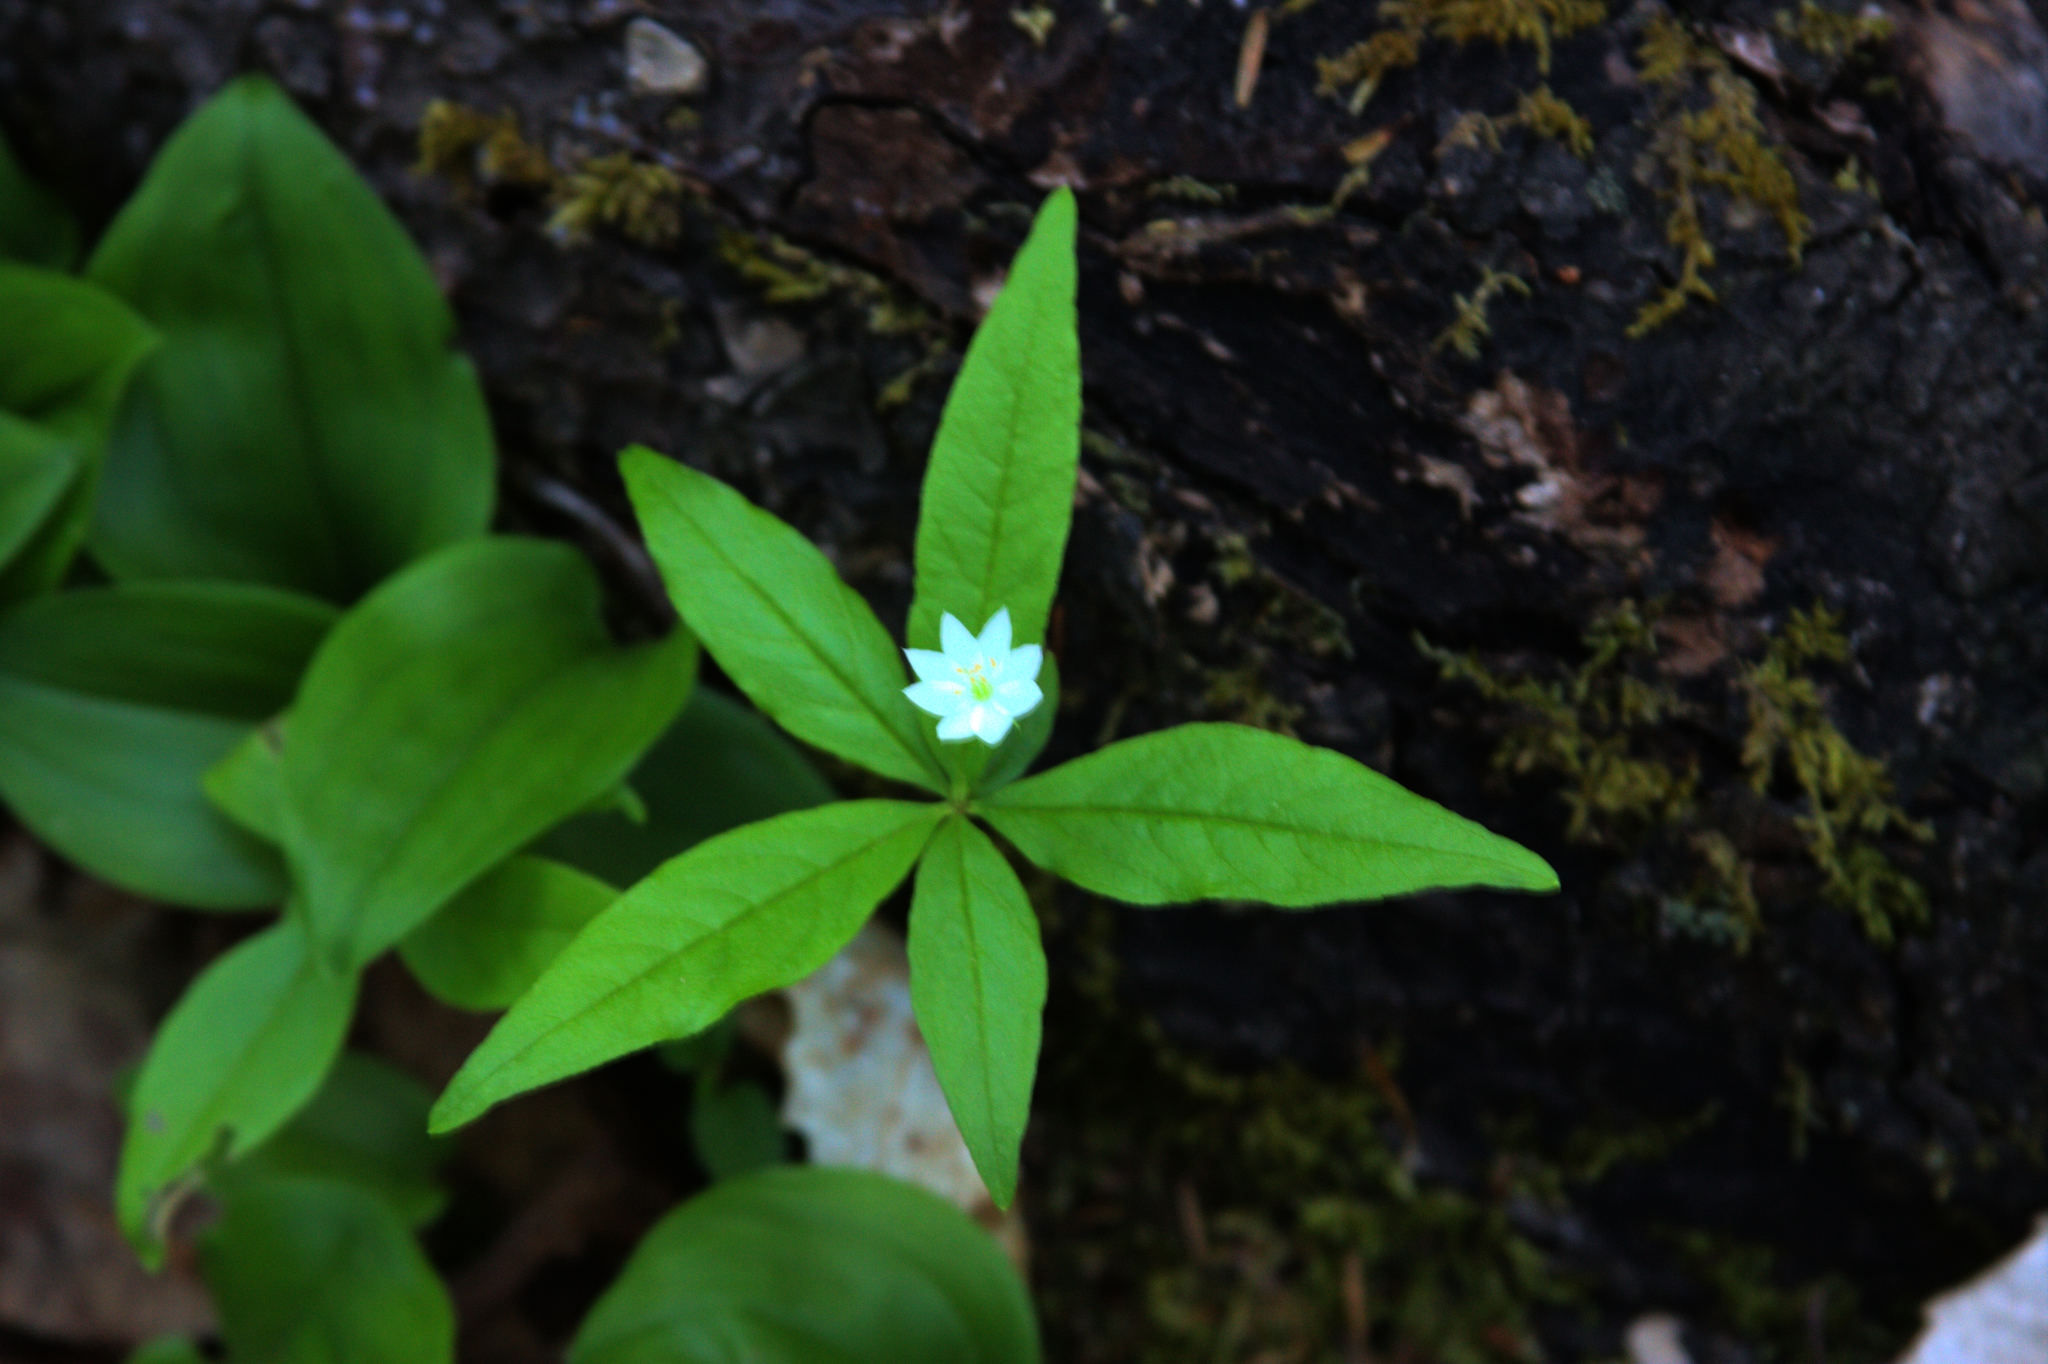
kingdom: Plantae
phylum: Tracheophyta
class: Magnoliopsida
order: Ericales
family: Primulaceae
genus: Lysimachia
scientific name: Lysimachia borealis
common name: American starflower
